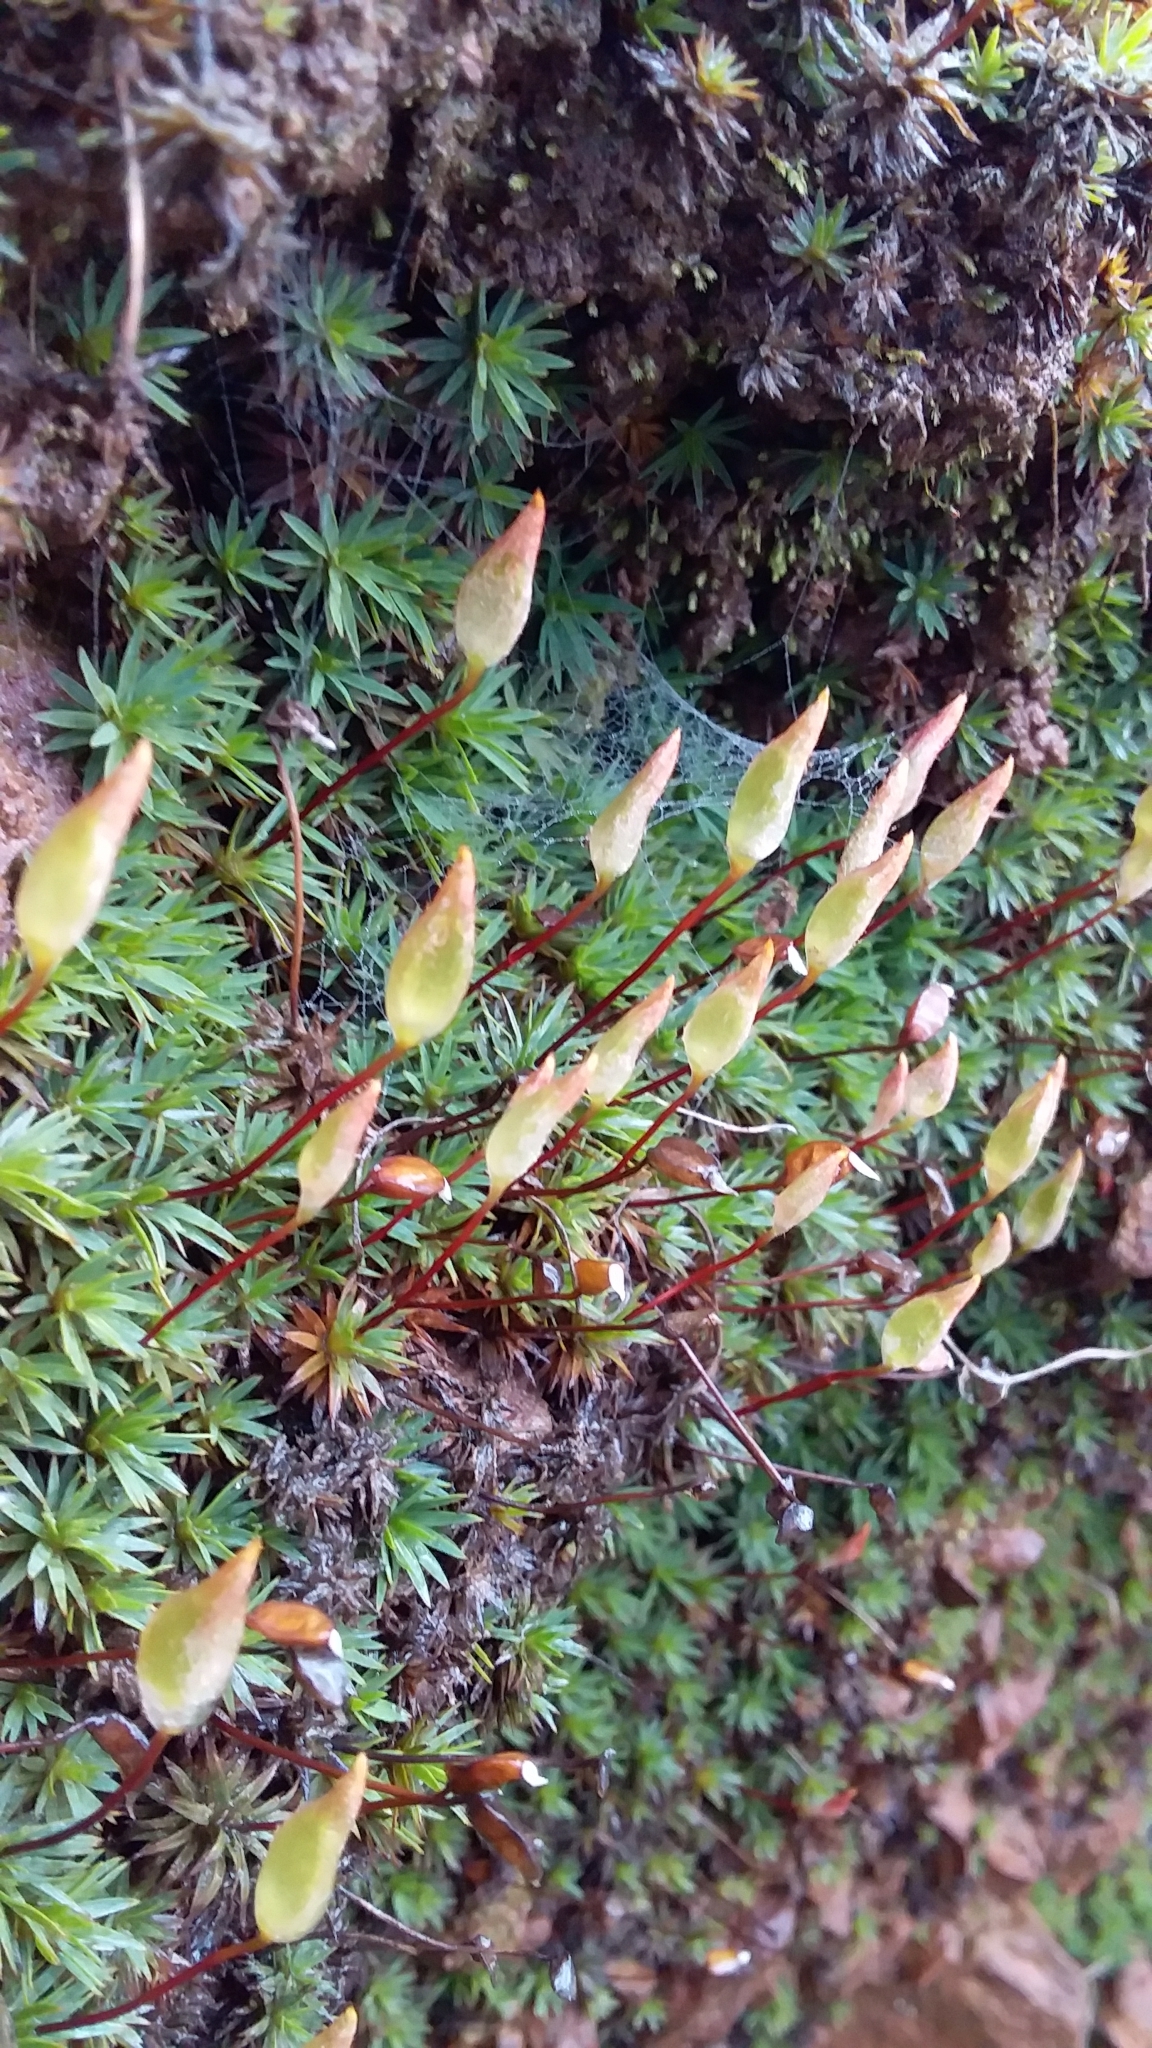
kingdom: Plantae
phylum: Bryophyta
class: Polytrichopsida
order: Polytrichales
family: Polytrichaceae
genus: Dawsonia
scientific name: Dawsonia longiseta
